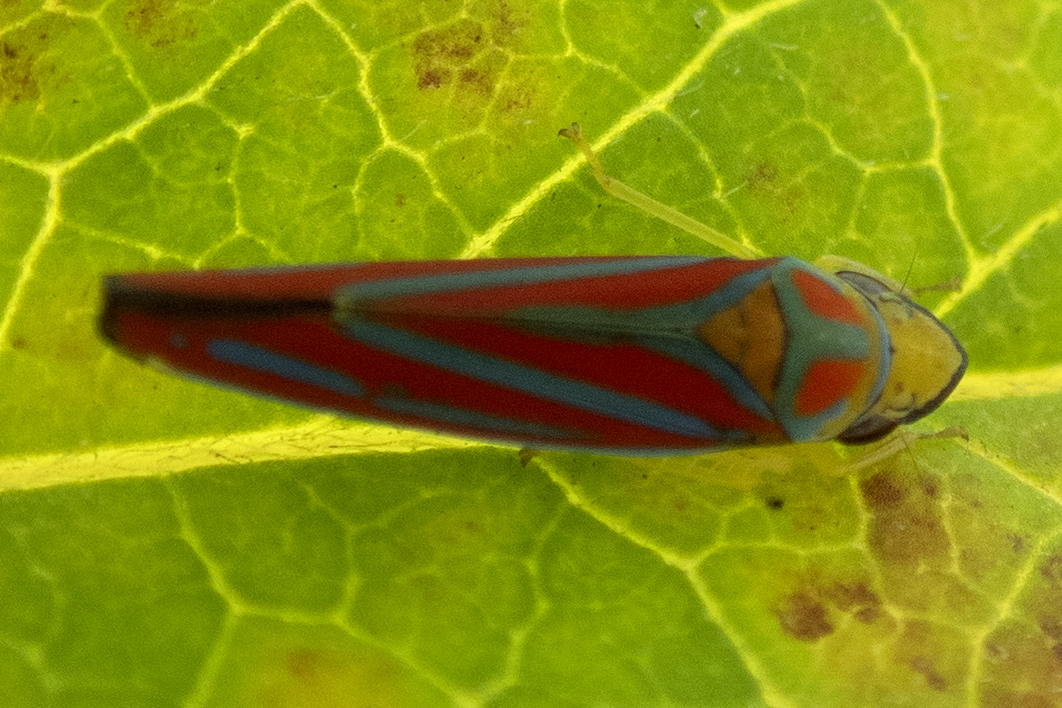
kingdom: Animalia
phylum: Arthropoda
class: Insecta
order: Hemiptera
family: Cicadellidae
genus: Graphocephala
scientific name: Graphocephala coccinea
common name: Candy-striped leafhopper
